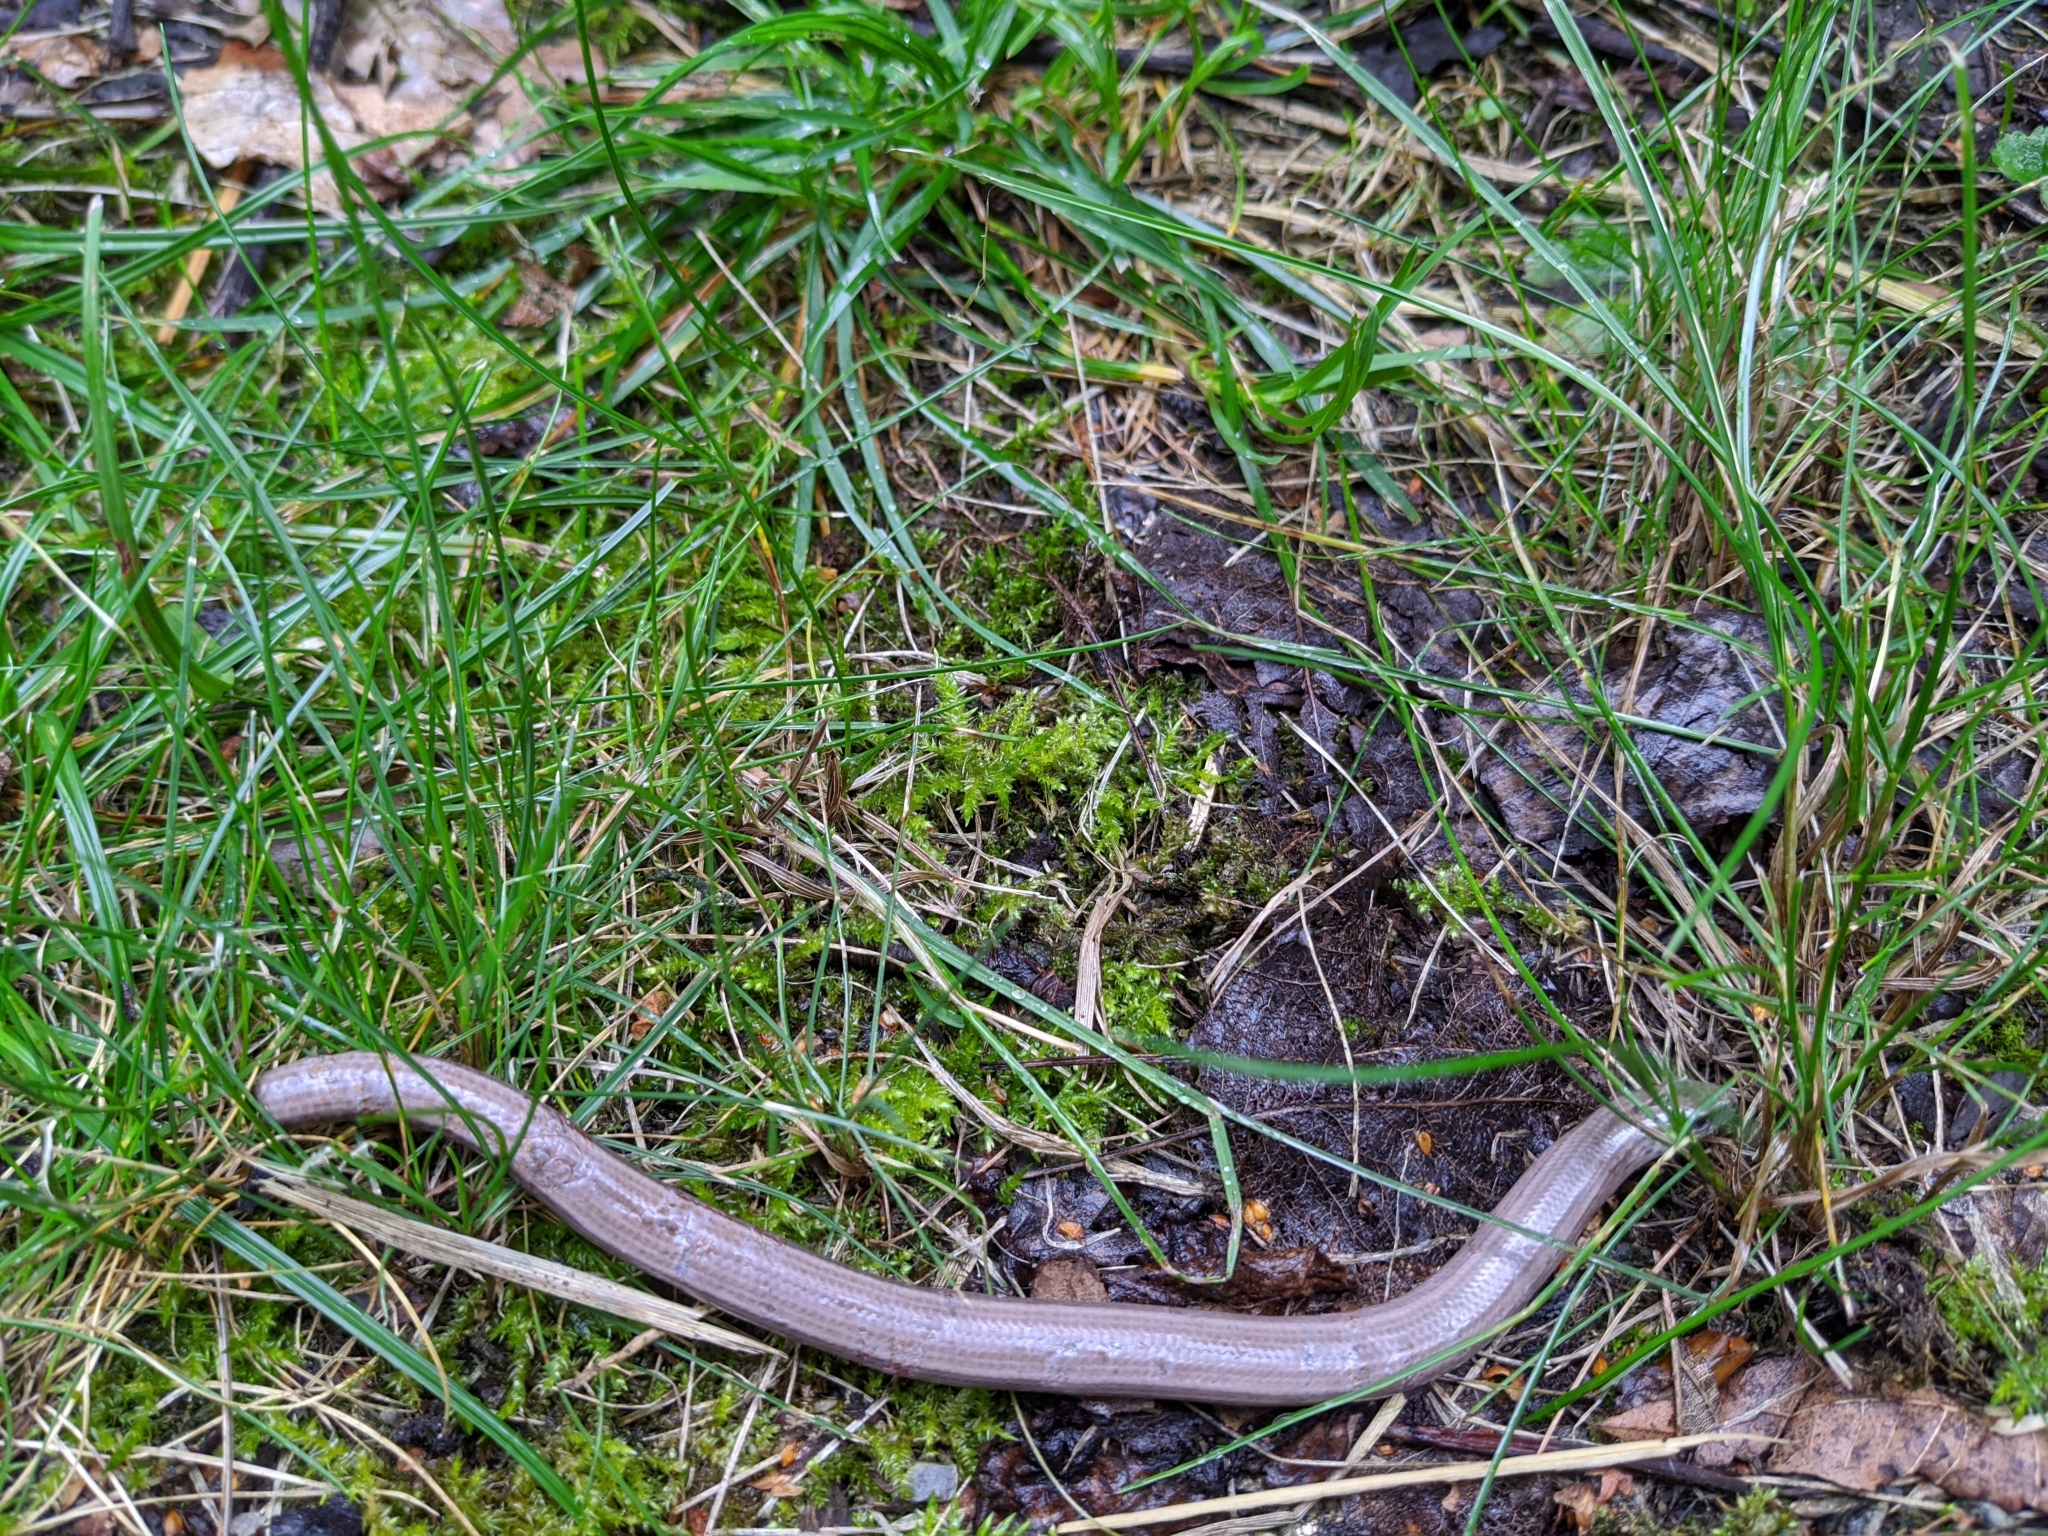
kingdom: Animalia
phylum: Chordata
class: Squamata
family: Anguidae
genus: Anguis
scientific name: Anguis fragilis
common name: Slow worm
